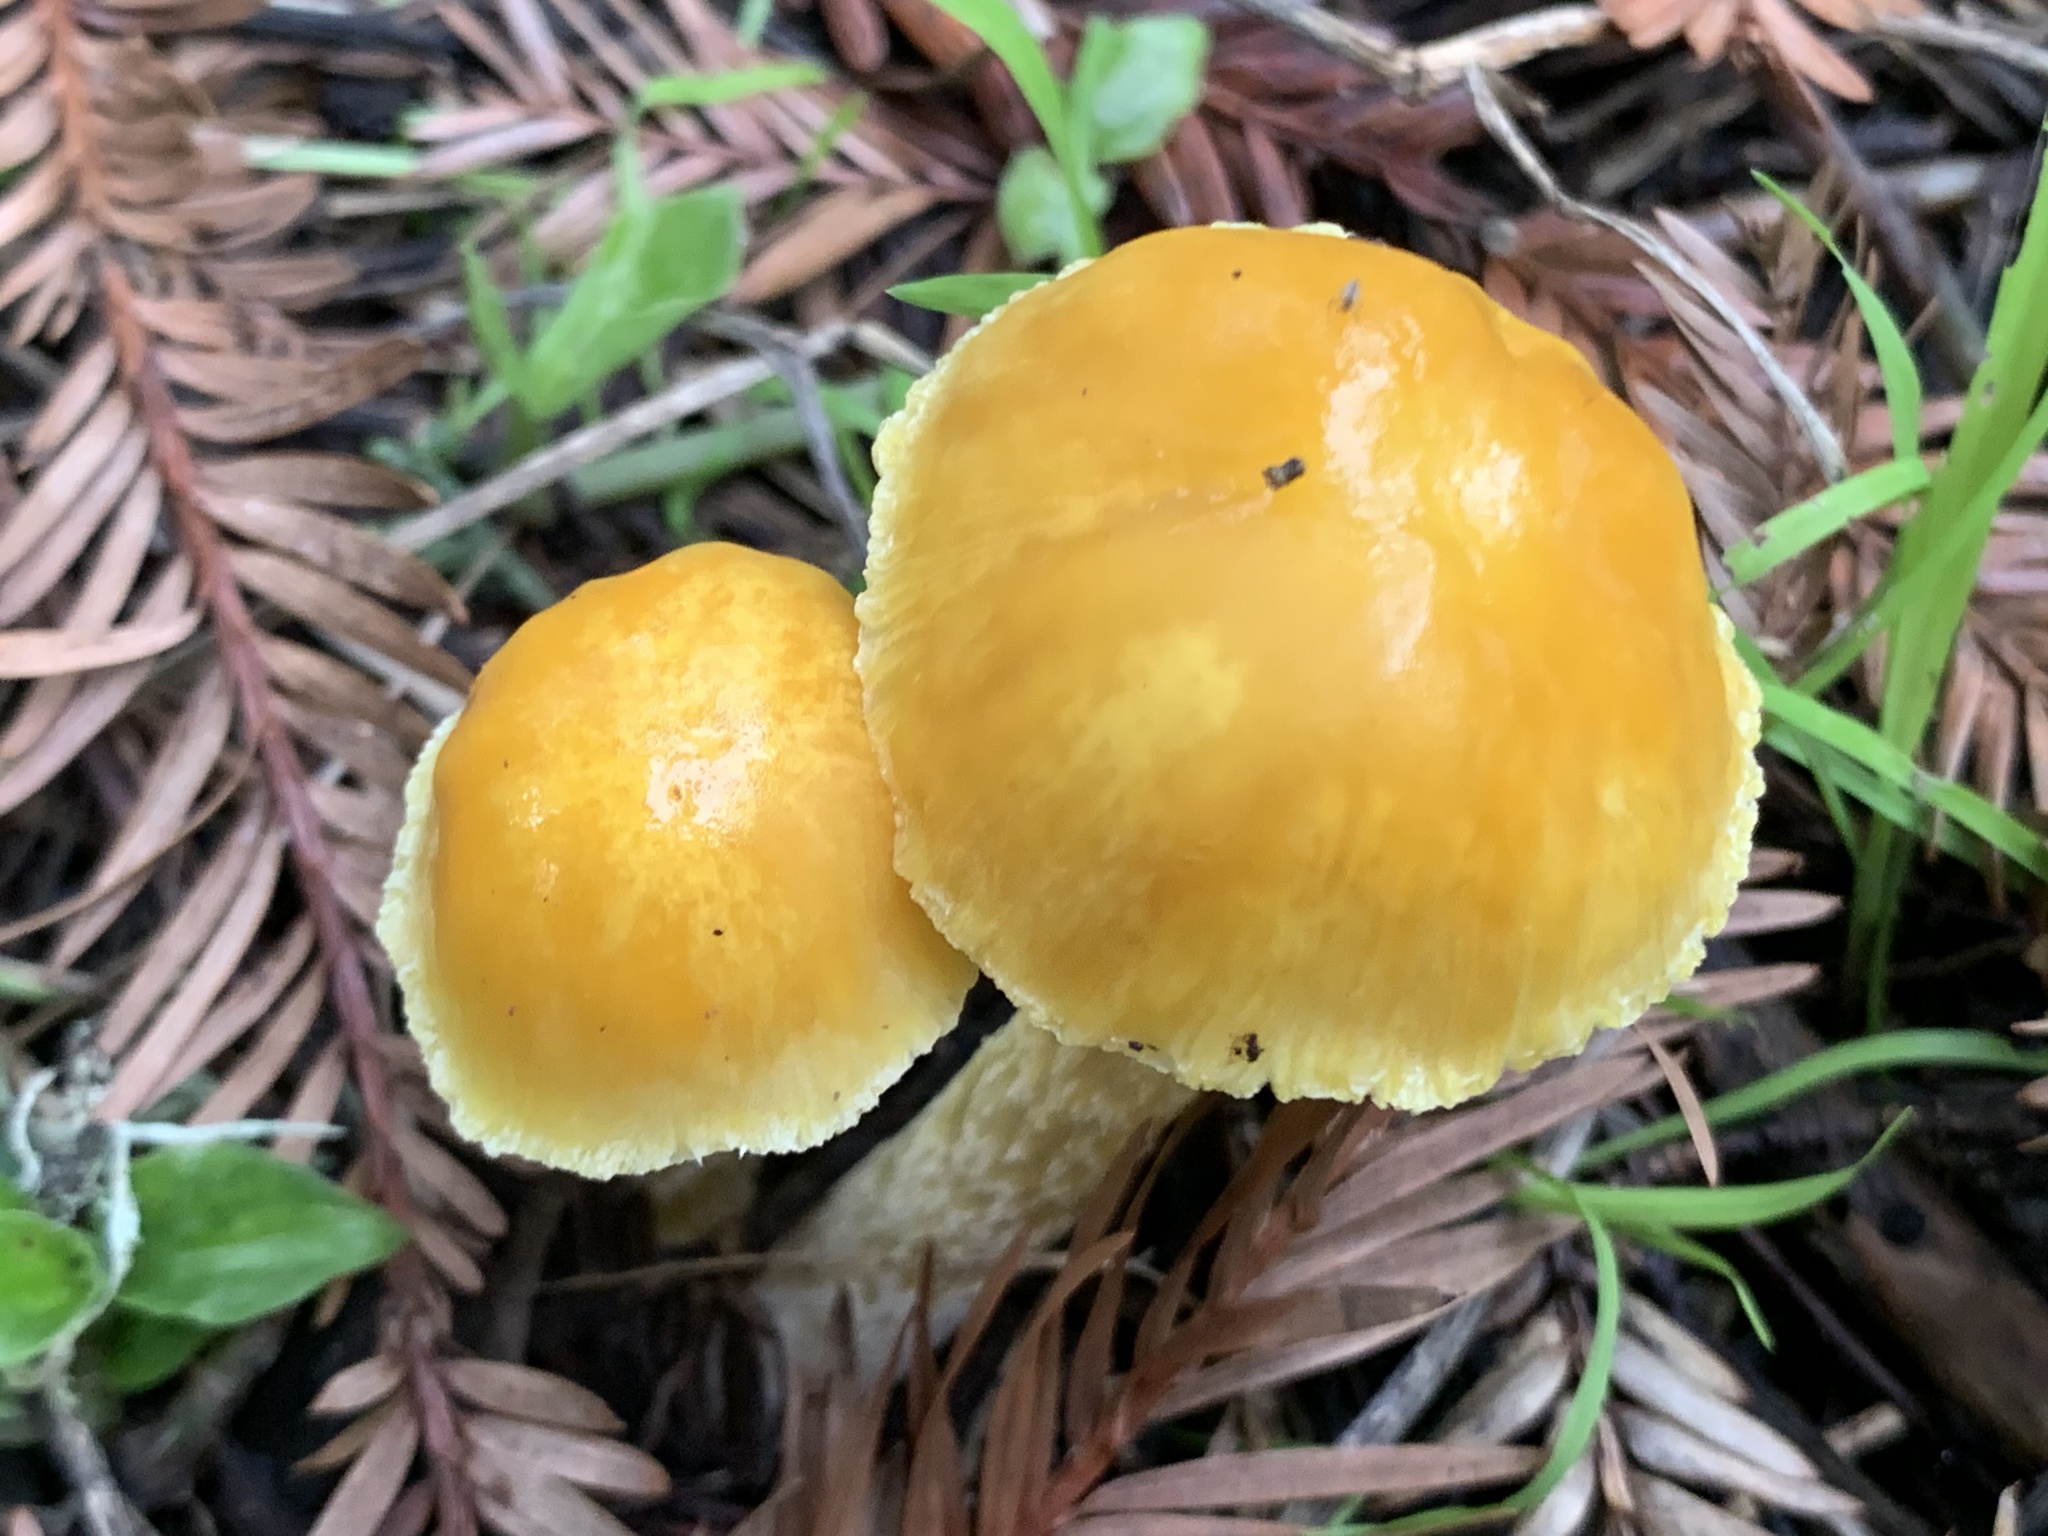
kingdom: Fungi
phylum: Basidiomycota
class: Agaricomycetes
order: Agaricales
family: Bolbitiaceae
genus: Bolbitius
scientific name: Bolbitius titubans
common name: Yellow fieldcap
